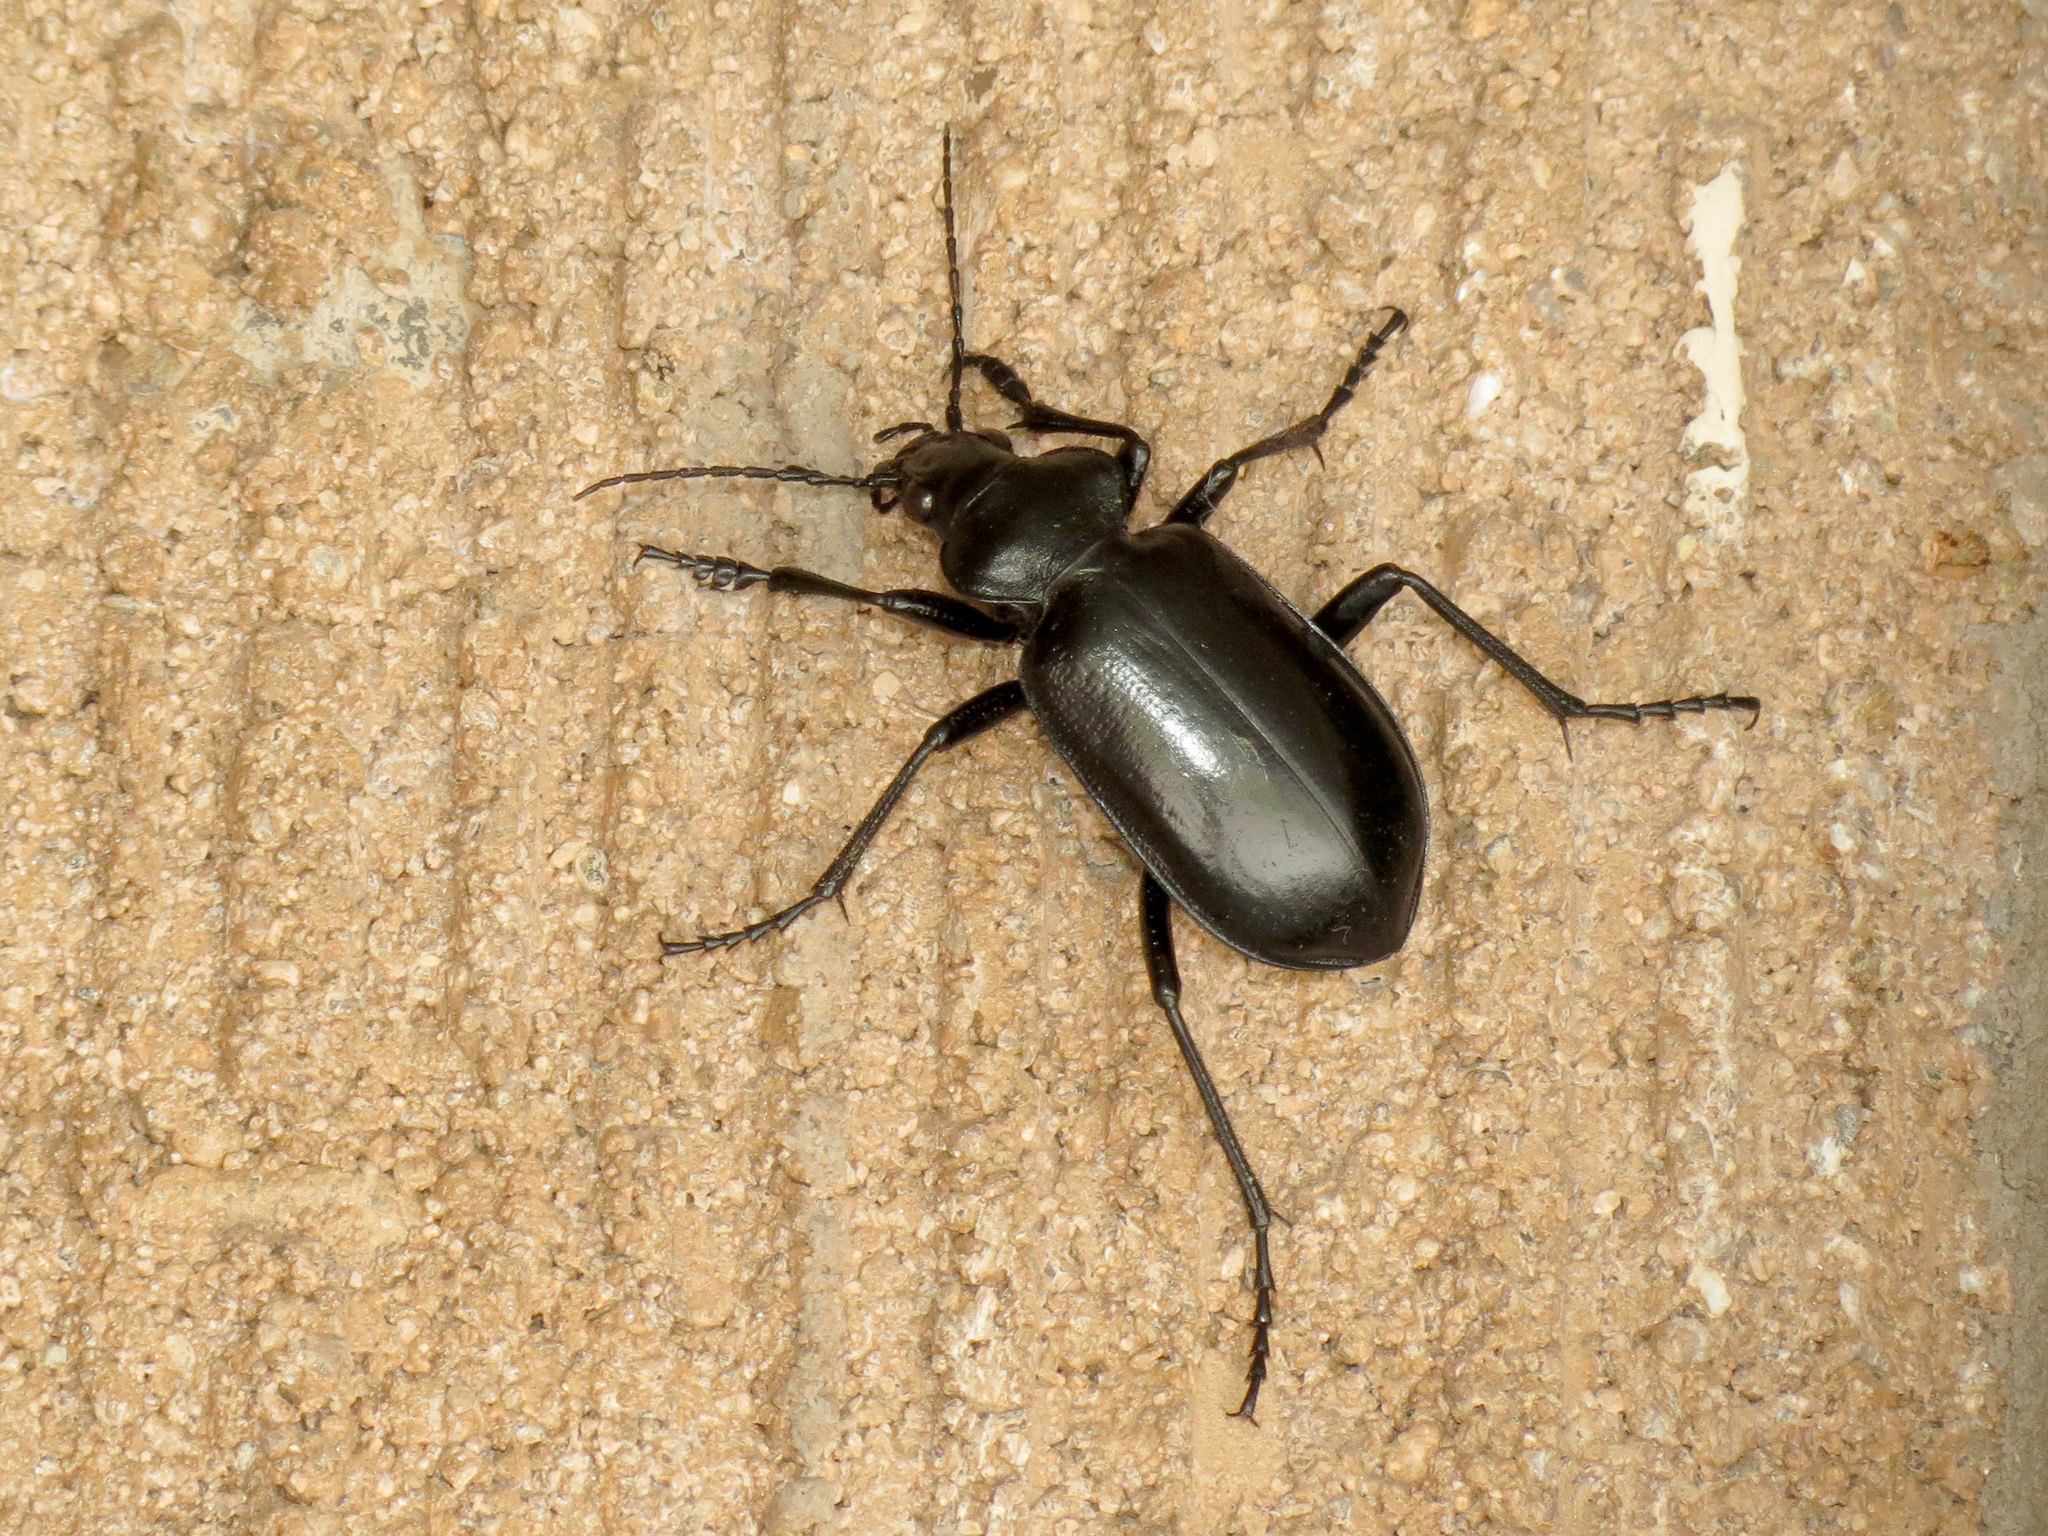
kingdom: Animalia
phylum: Arthropoda
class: Insecta
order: Coleoptera
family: Carabidae
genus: Calosoma
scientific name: Calosoma peregrinator
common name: Ground beetle
